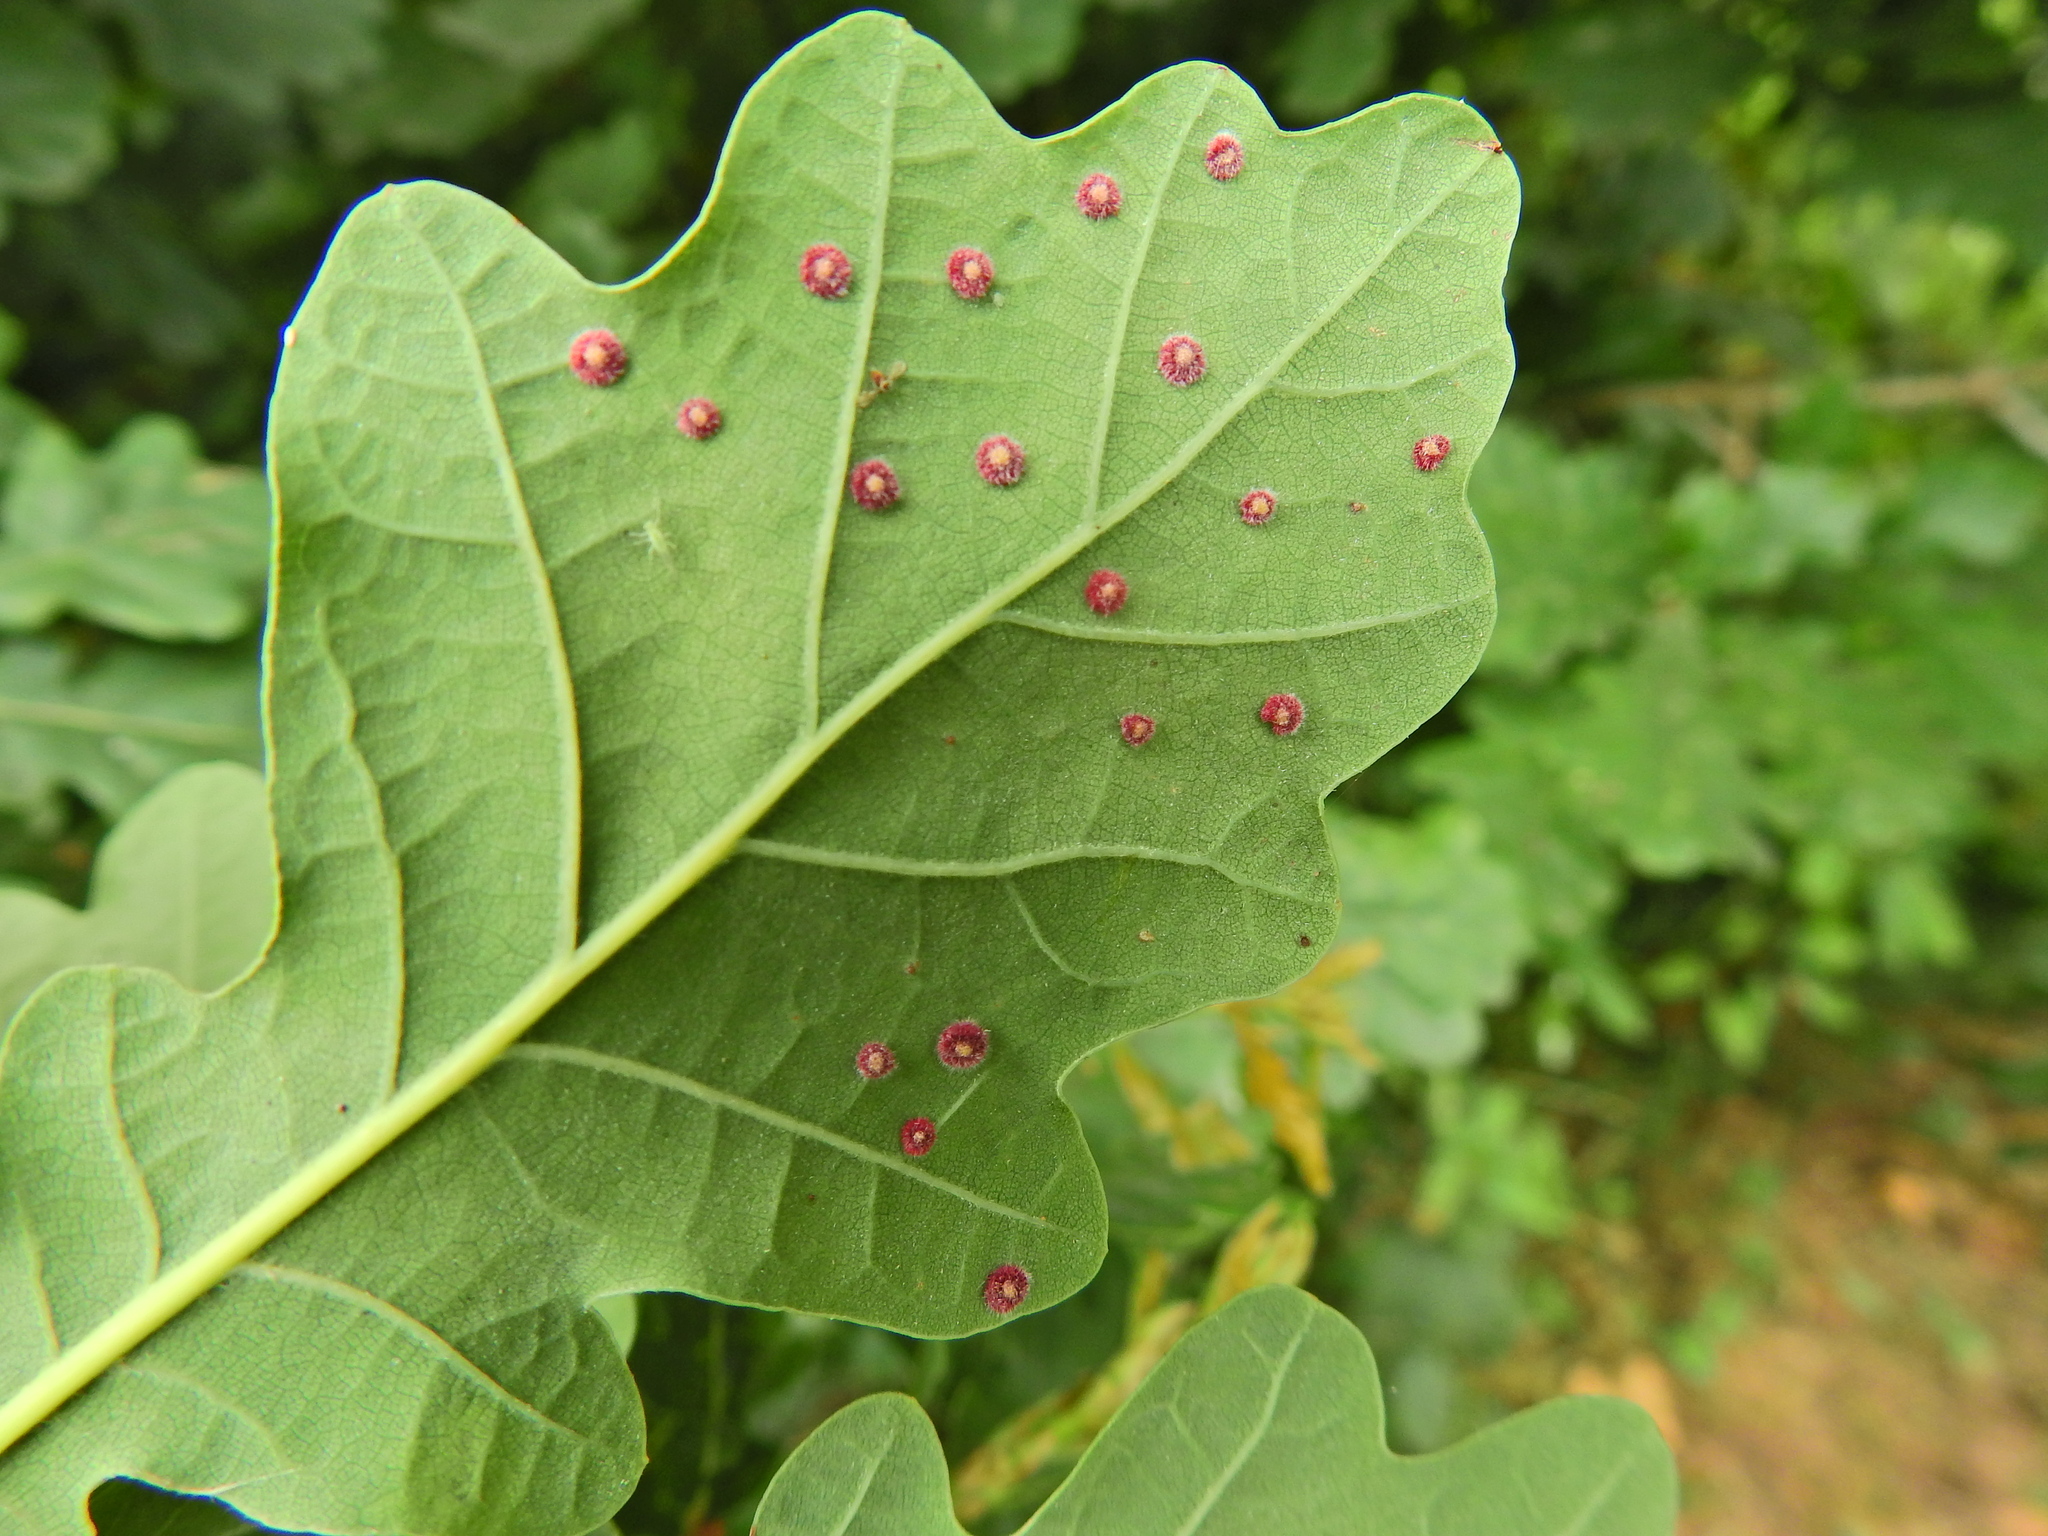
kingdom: Animalia
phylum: Arthropoda
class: Insecta
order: Hymenoptera
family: Cynipidae
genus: Neuroterus
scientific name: Neuroterus quercusbaccarum
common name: Common spangle gall
